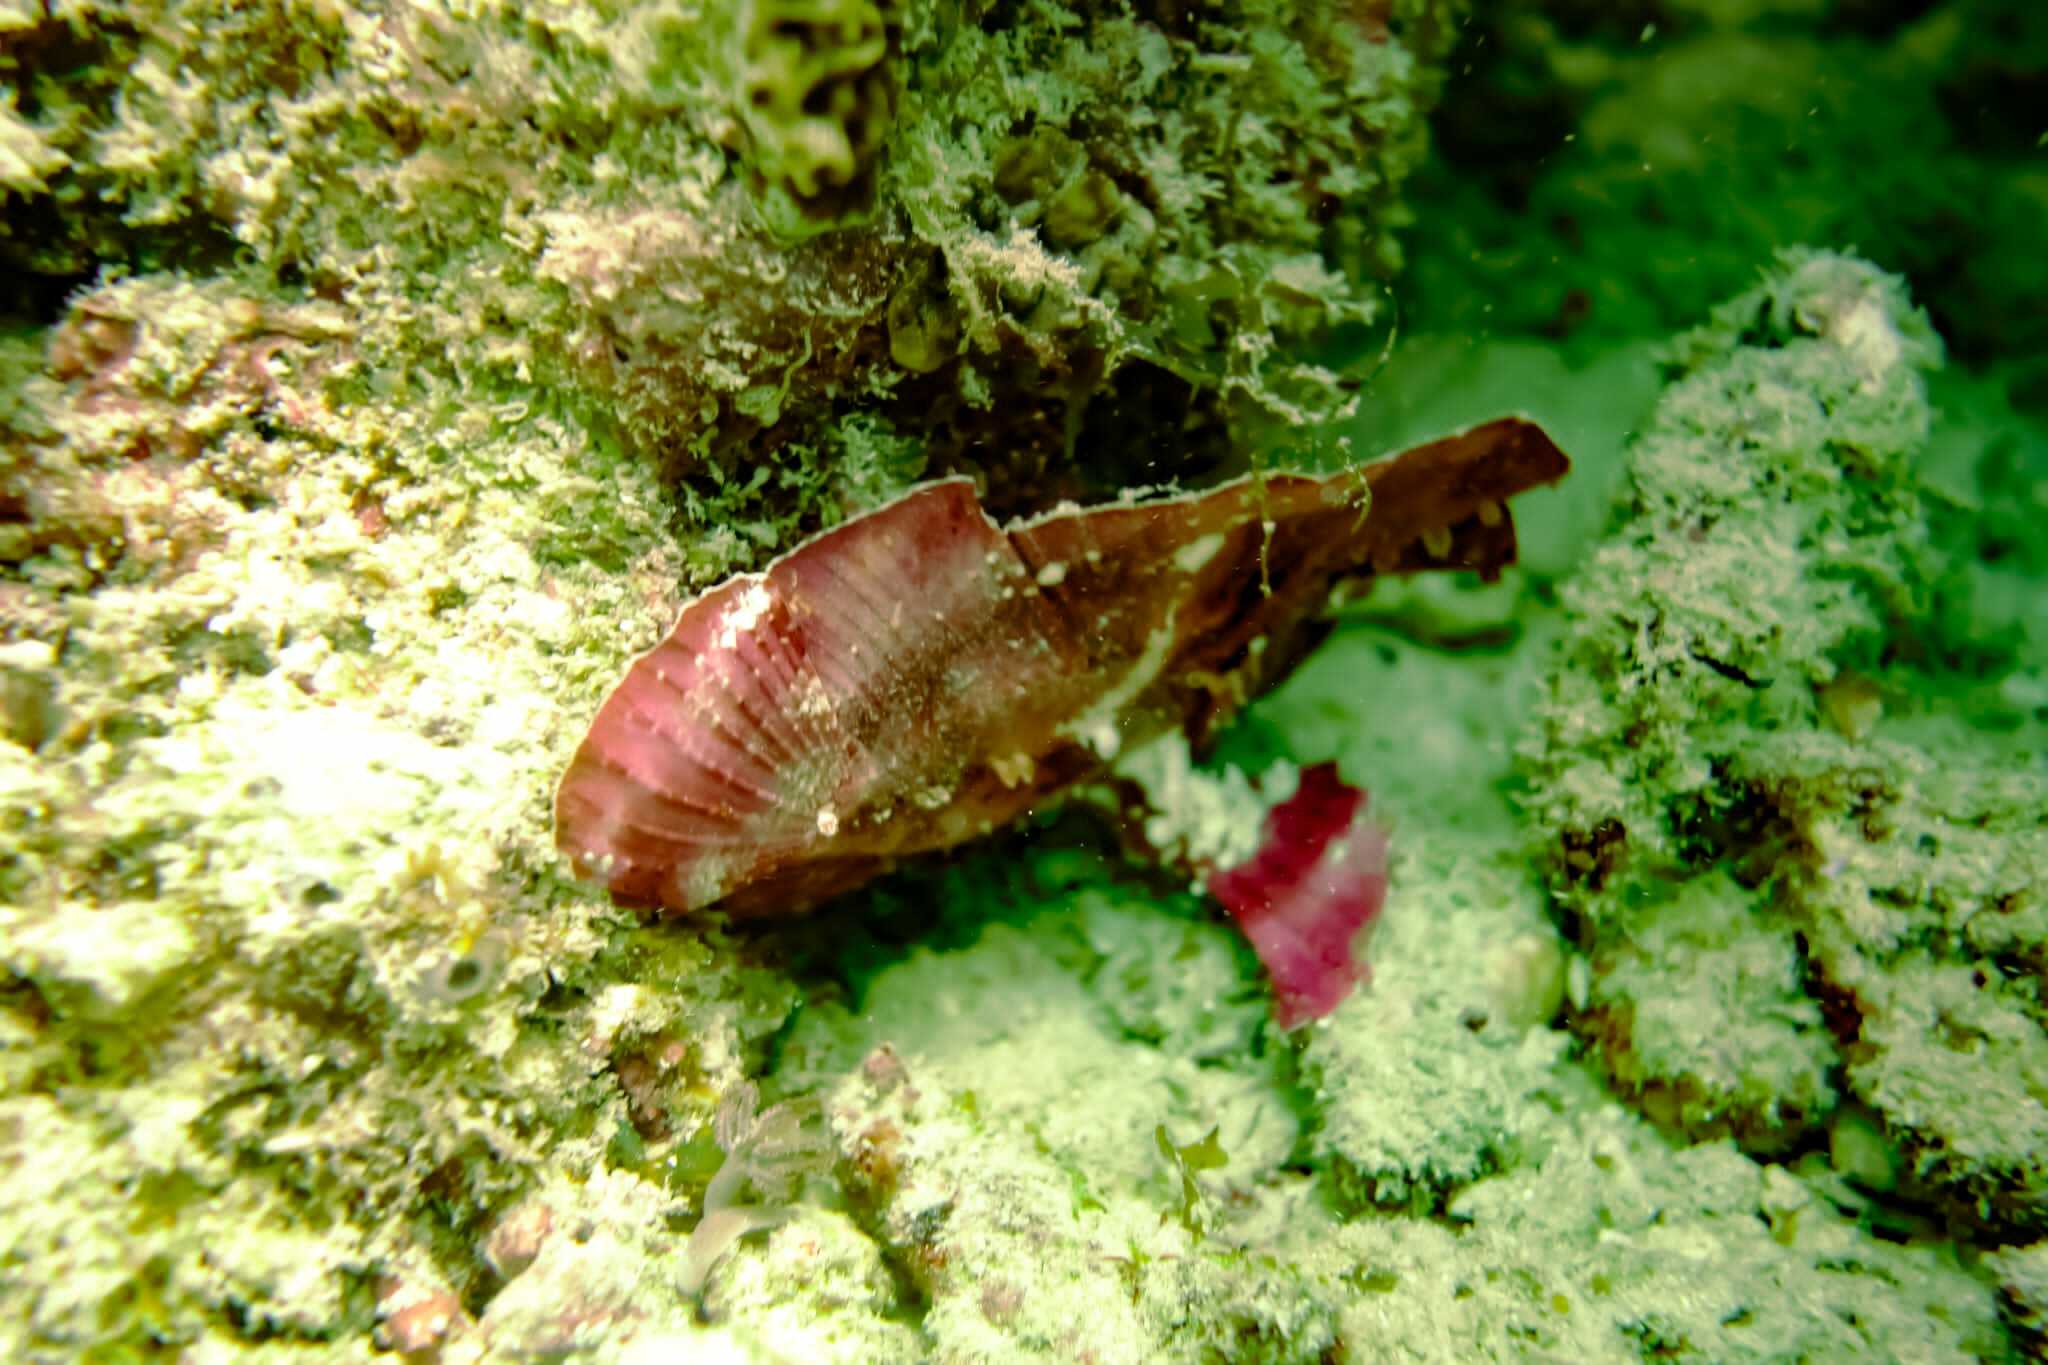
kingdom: Animalia
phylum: Chordata
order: Scorpaeniformes
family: Scorpaenidae
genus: Taenianotus
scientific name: Taenianotus triacanthus
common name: Leaf scorpionfish
